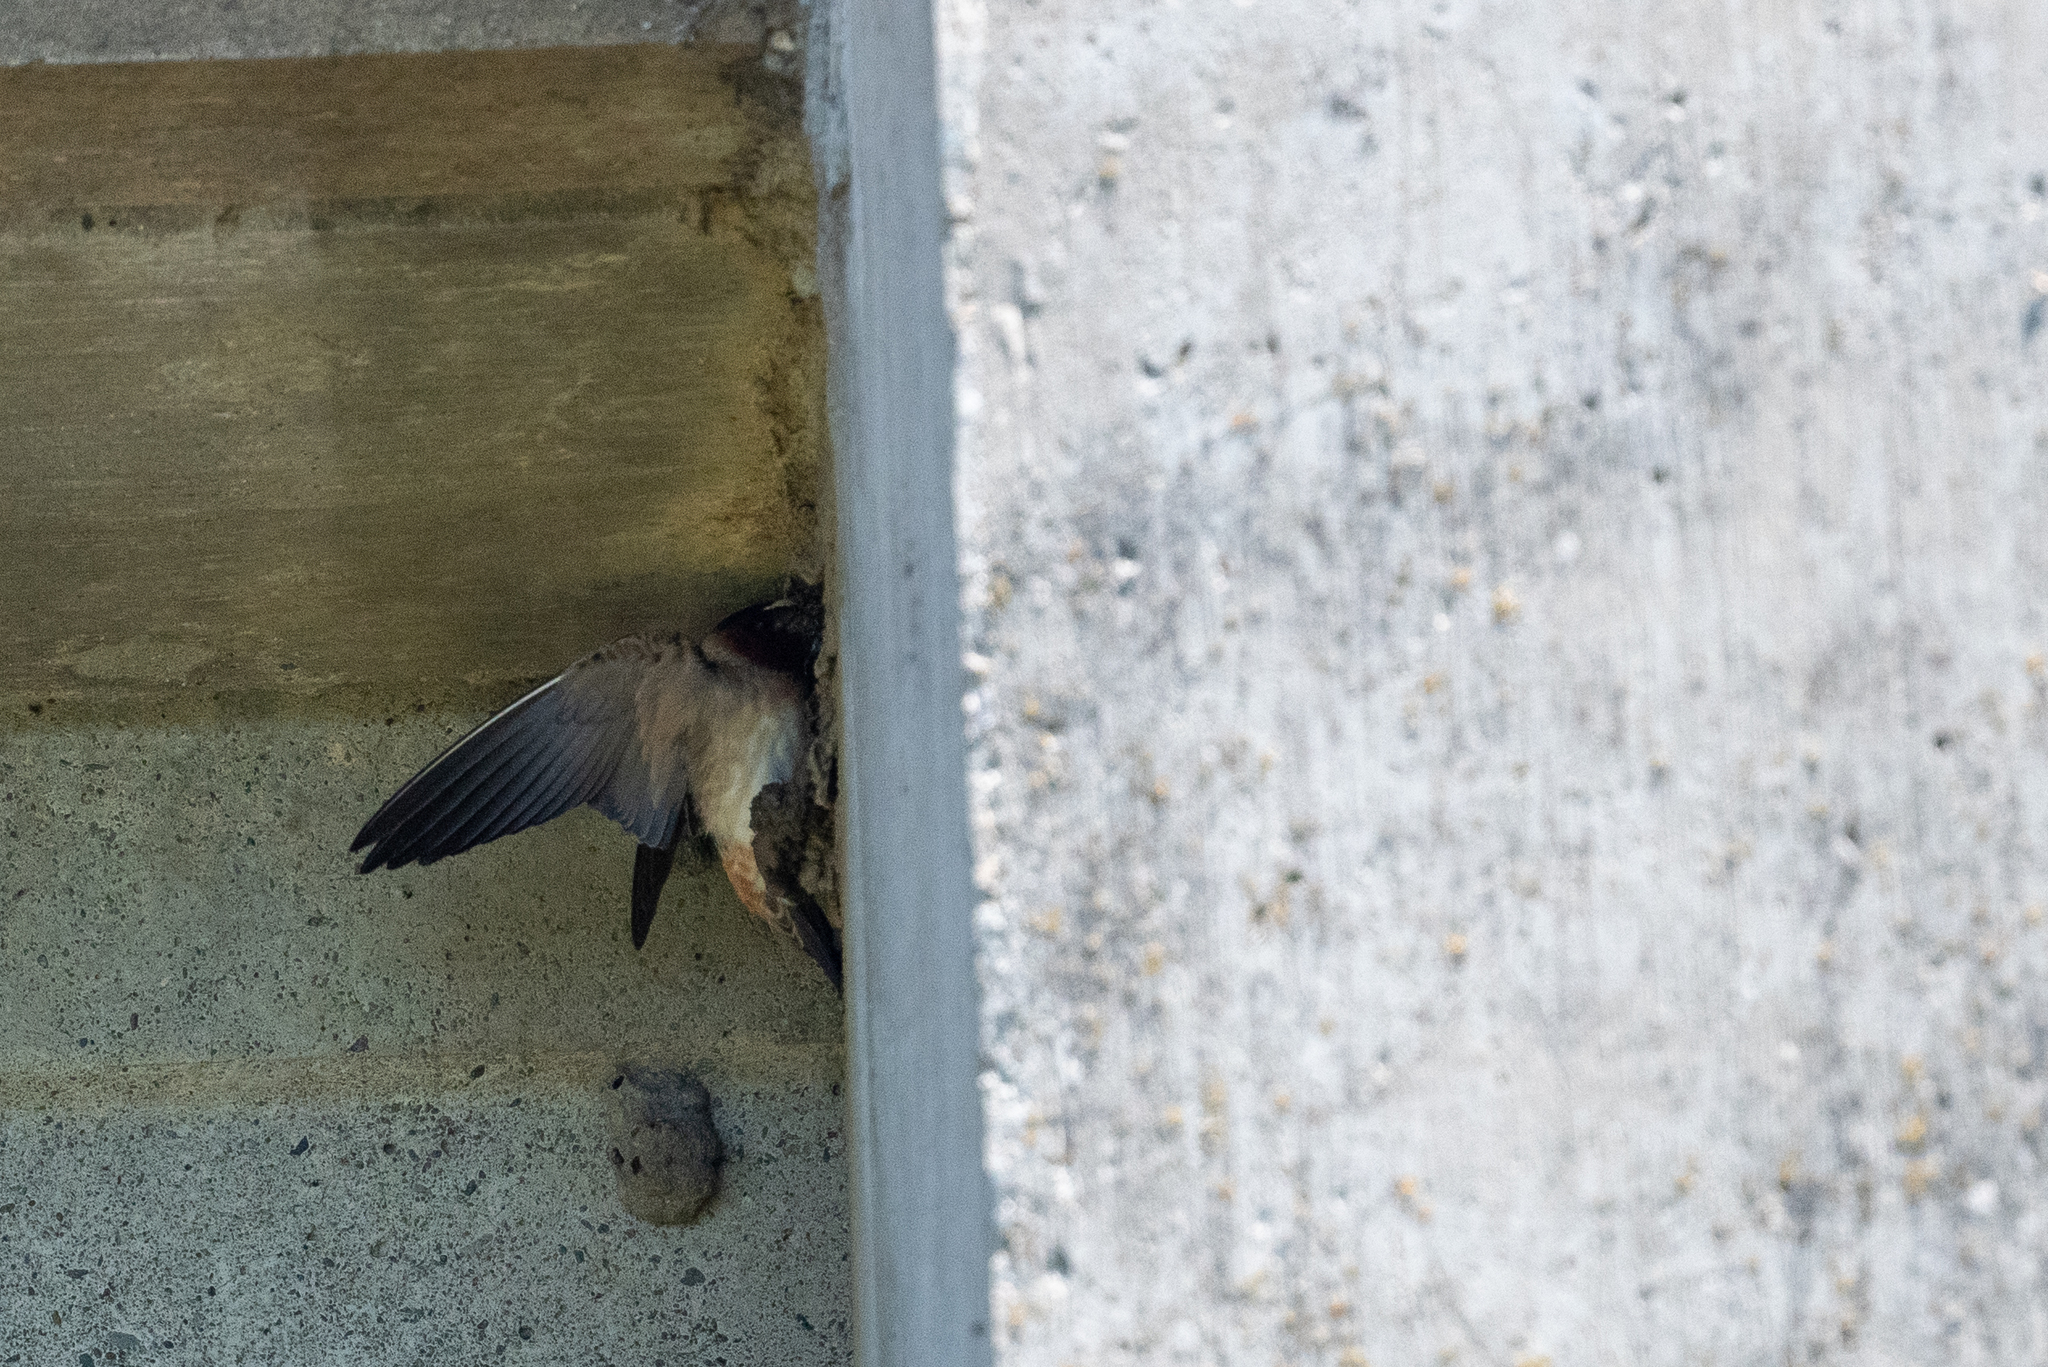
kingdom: Animalia
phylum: Chordata
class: Aves
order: Passeriformes
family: Hirundinidae
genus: Petrochelidon
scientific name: Petrochelidon pyrrhonota
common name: American cliff swallow
